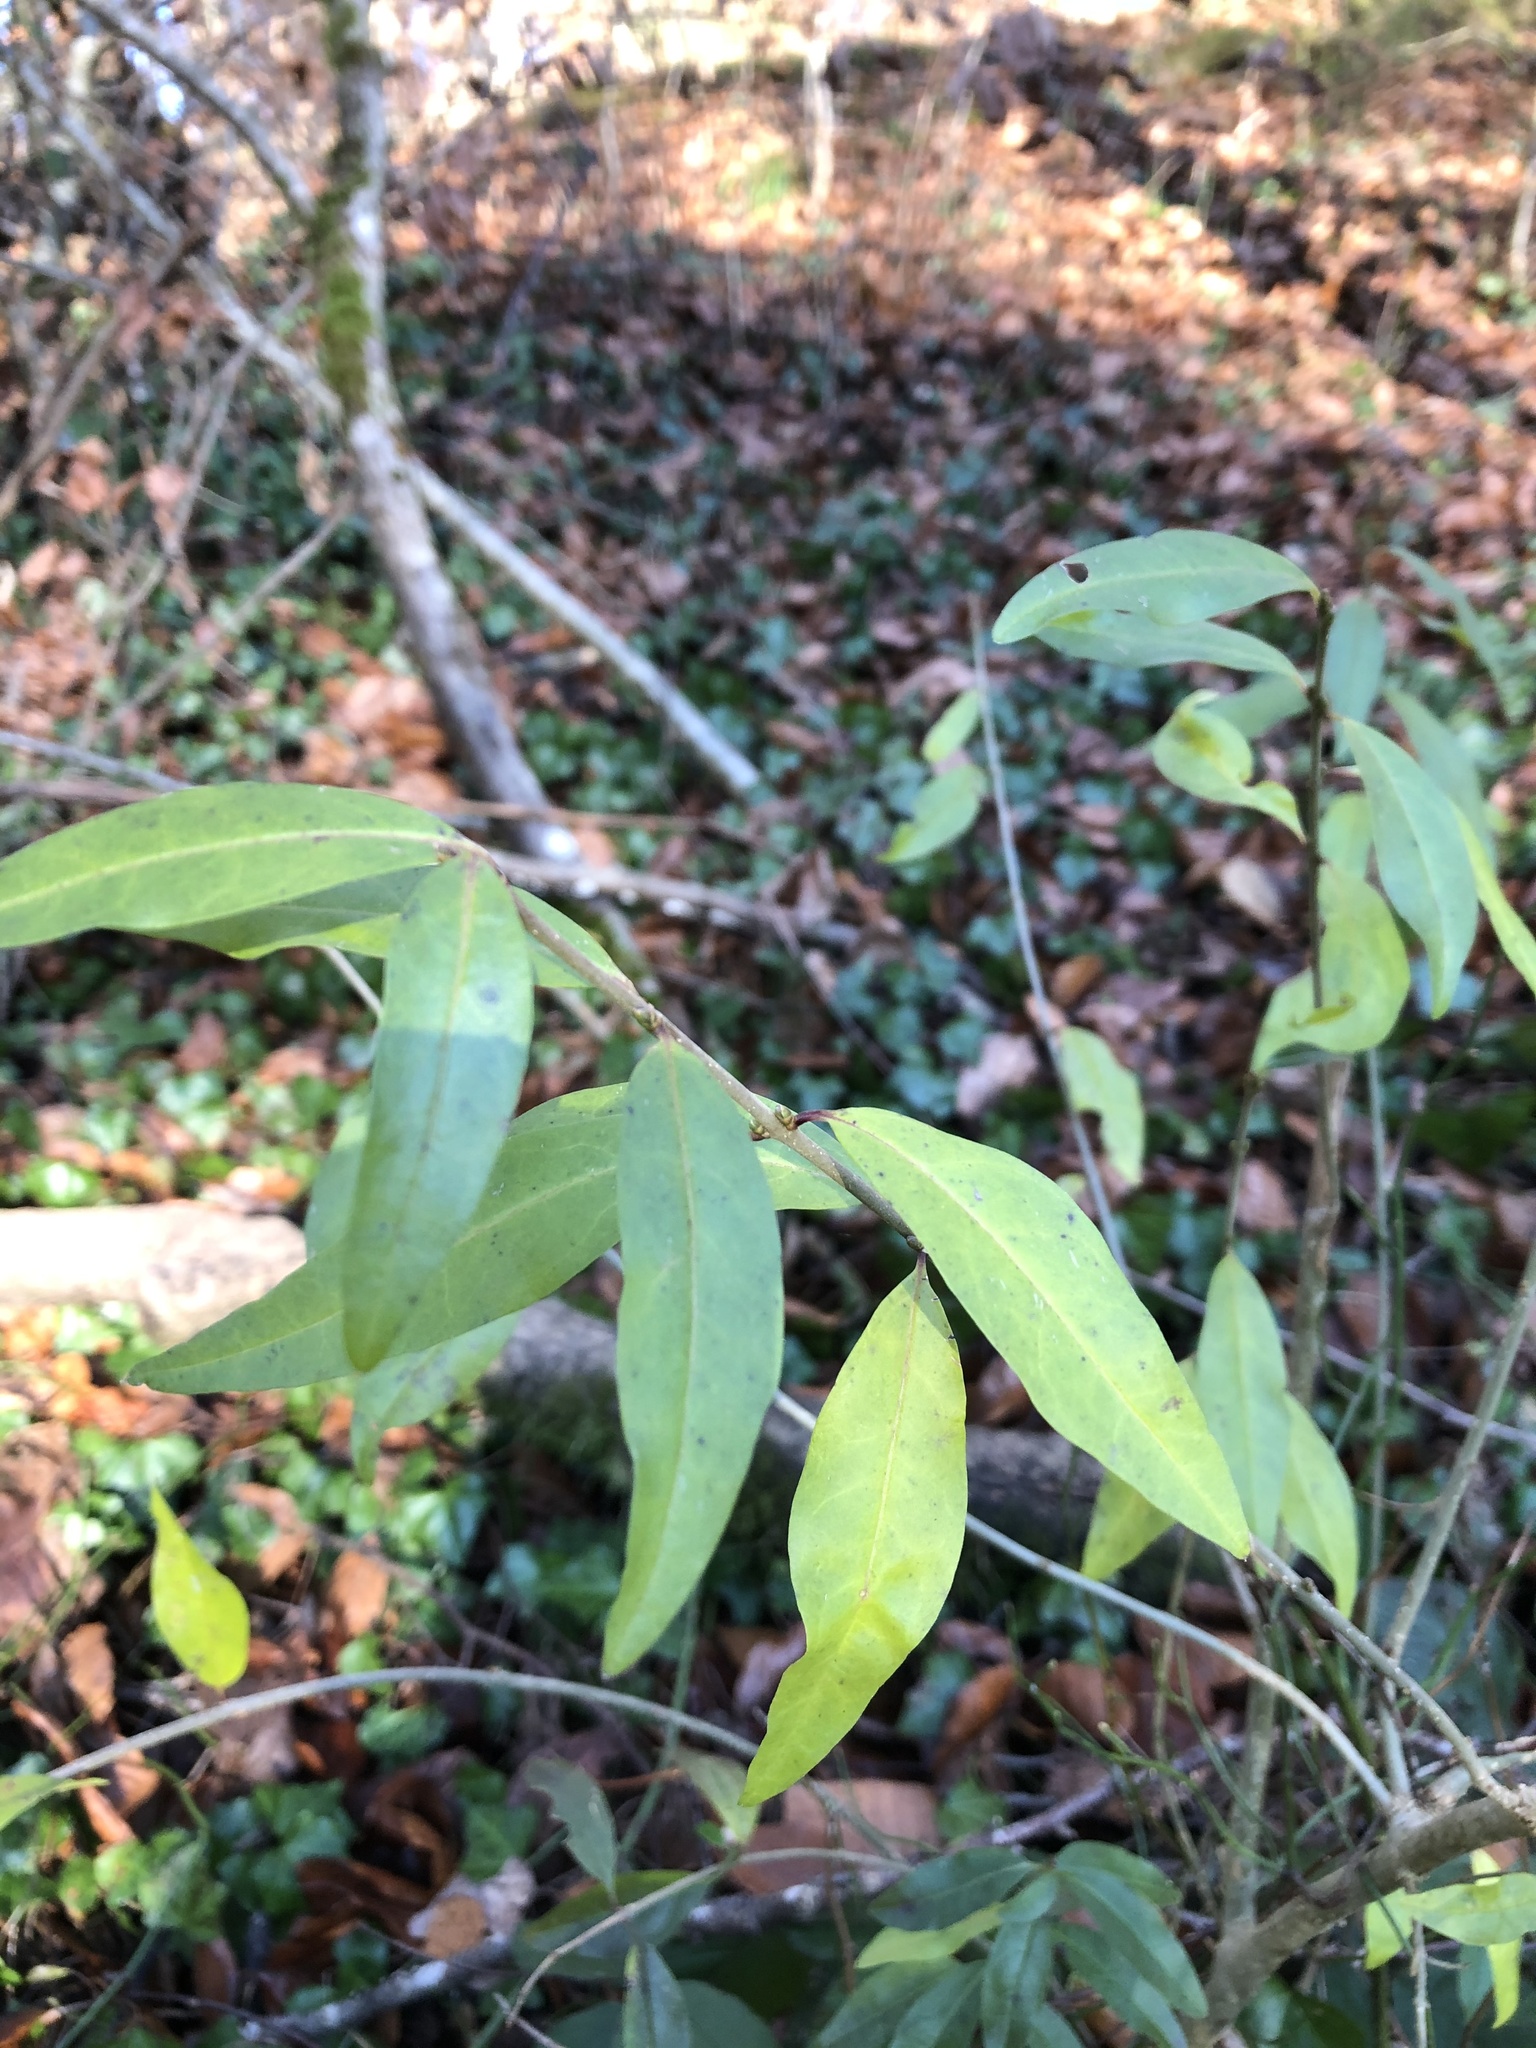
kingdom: Plantae
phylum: Tracheophyta
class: Magnoliopsida
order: Lamiales
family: Oleaceae
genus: Ligustrum
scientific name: Ligustrum vulgare
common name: Wild privet
